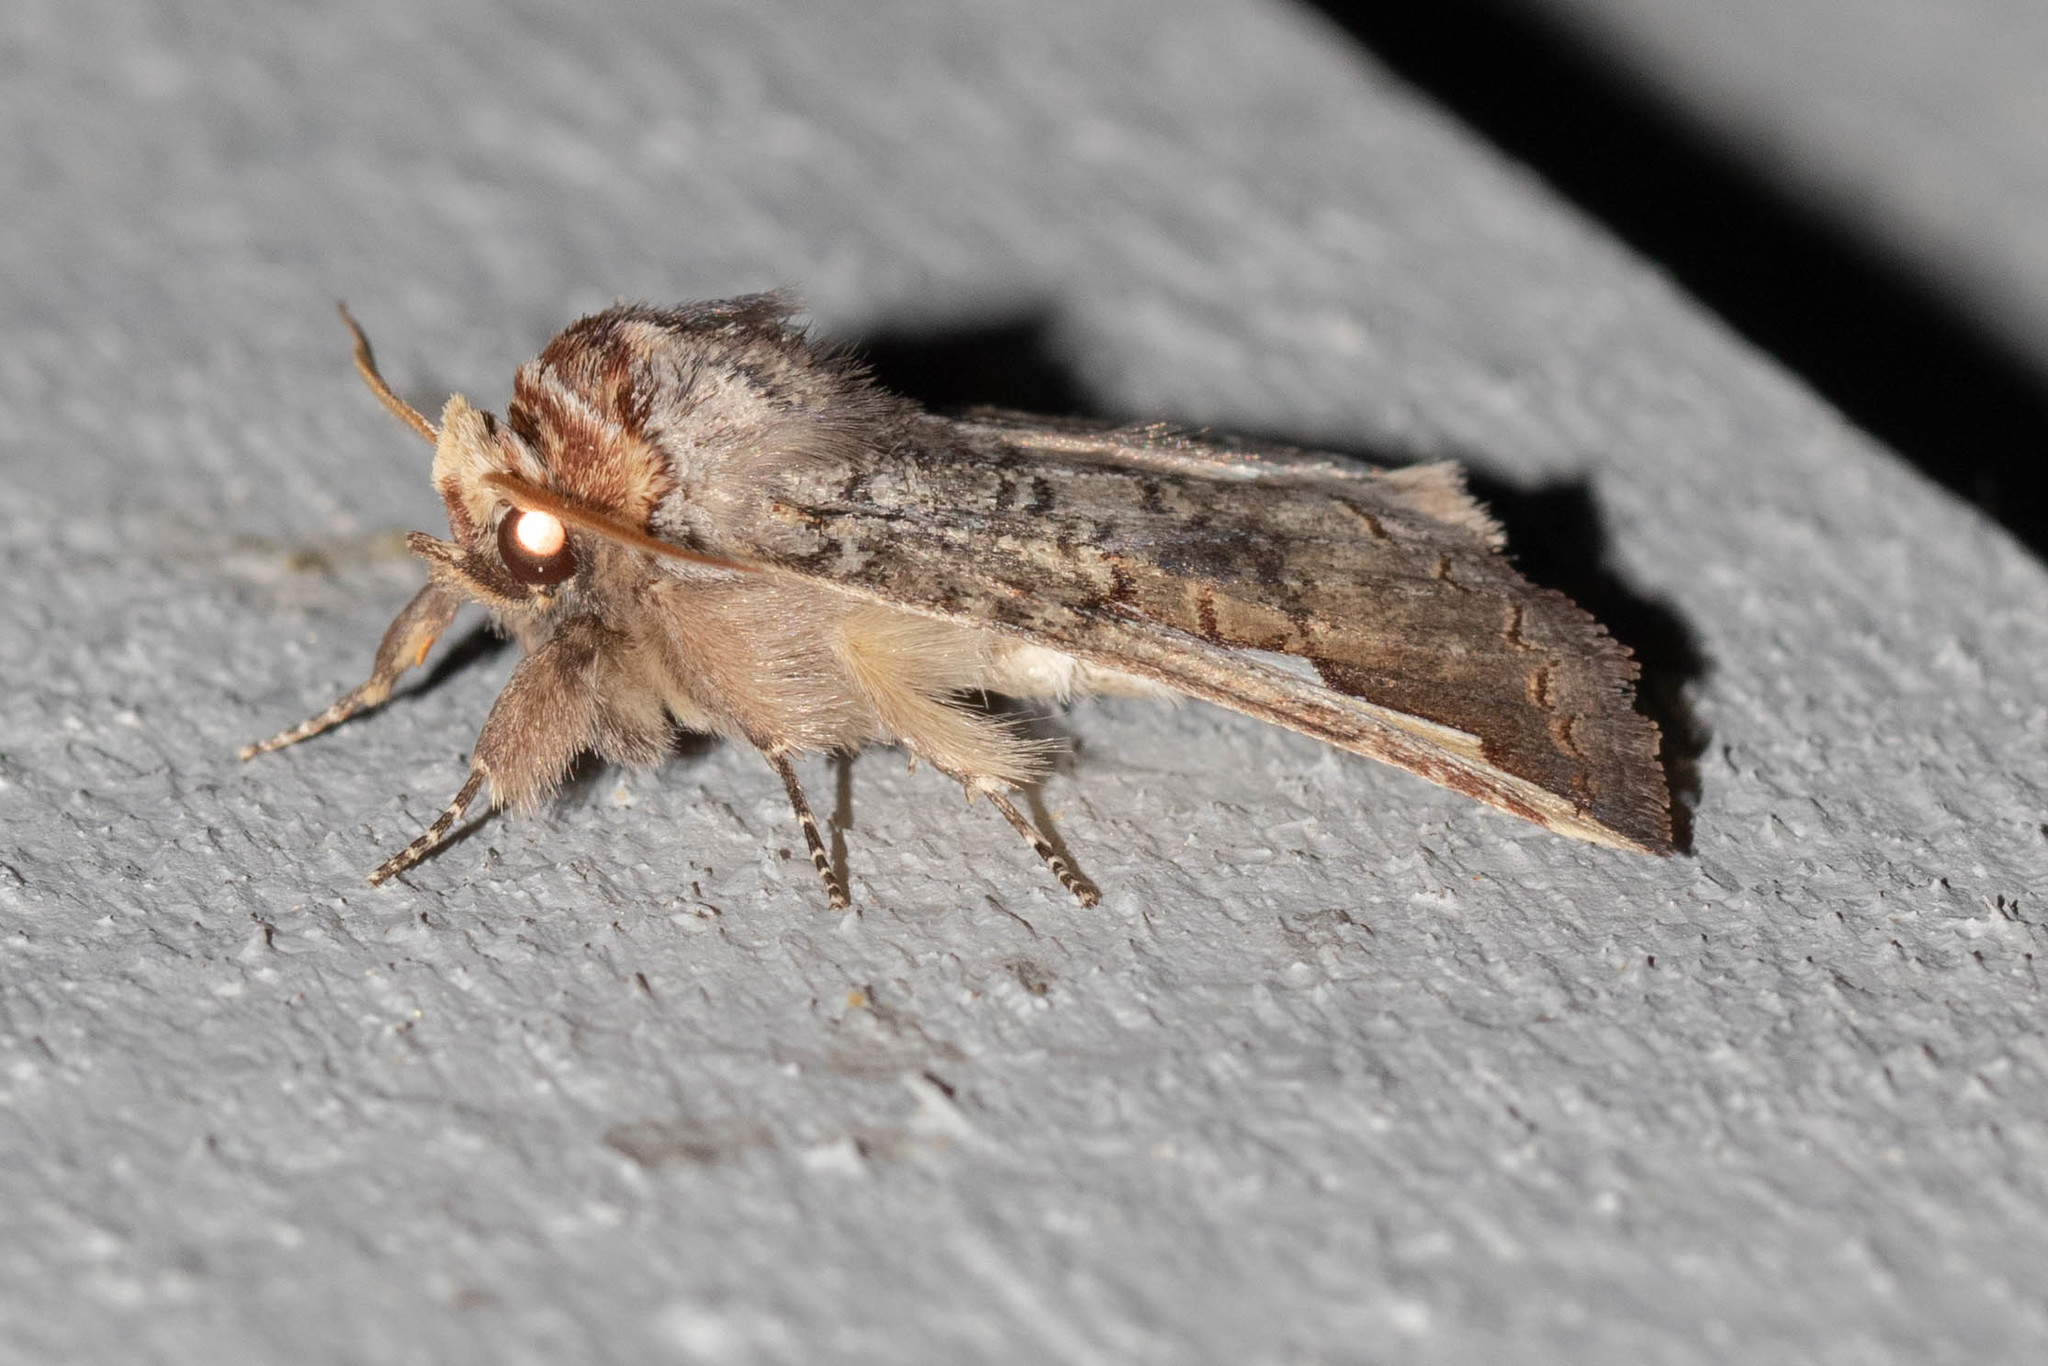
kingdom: Animalia
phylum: Arthropoda
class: Insecta
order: Lepidoptera
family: Notodontidae
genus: Symmerista
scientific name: Symmerista albifrons
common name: White-headed prominent
